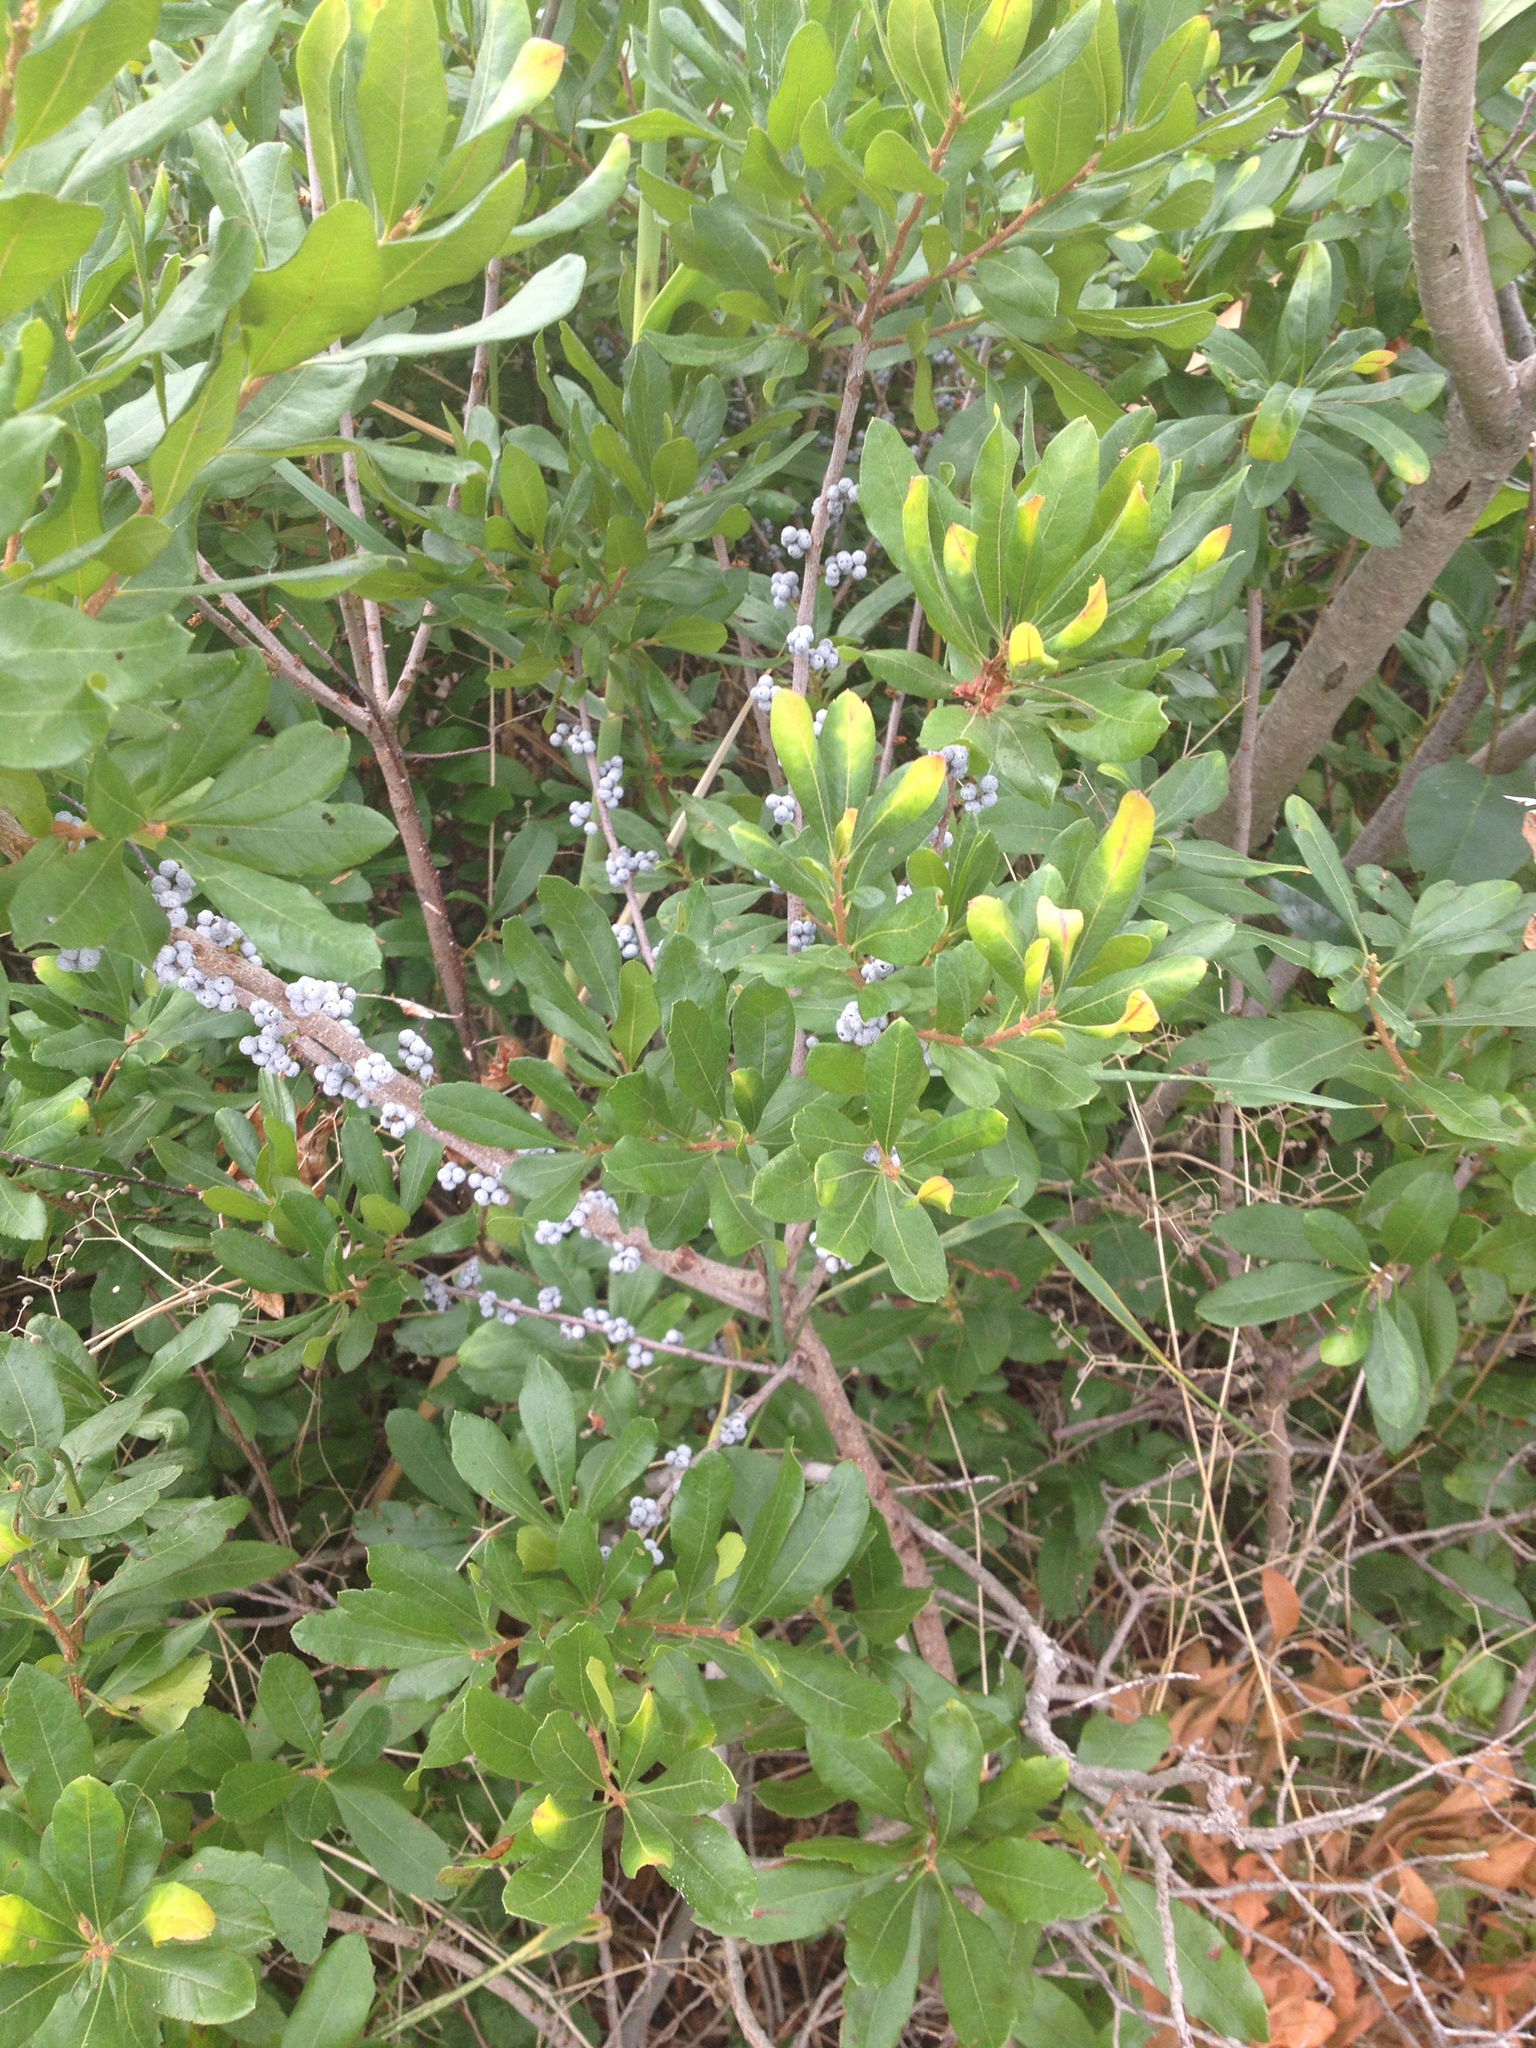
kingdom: Plantae
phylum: Tracheophyta
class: Magnoliopsida
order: Fagales
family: Myricaceae
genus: Morella
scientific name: Morella pensylvanica
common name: Northern bayberry
